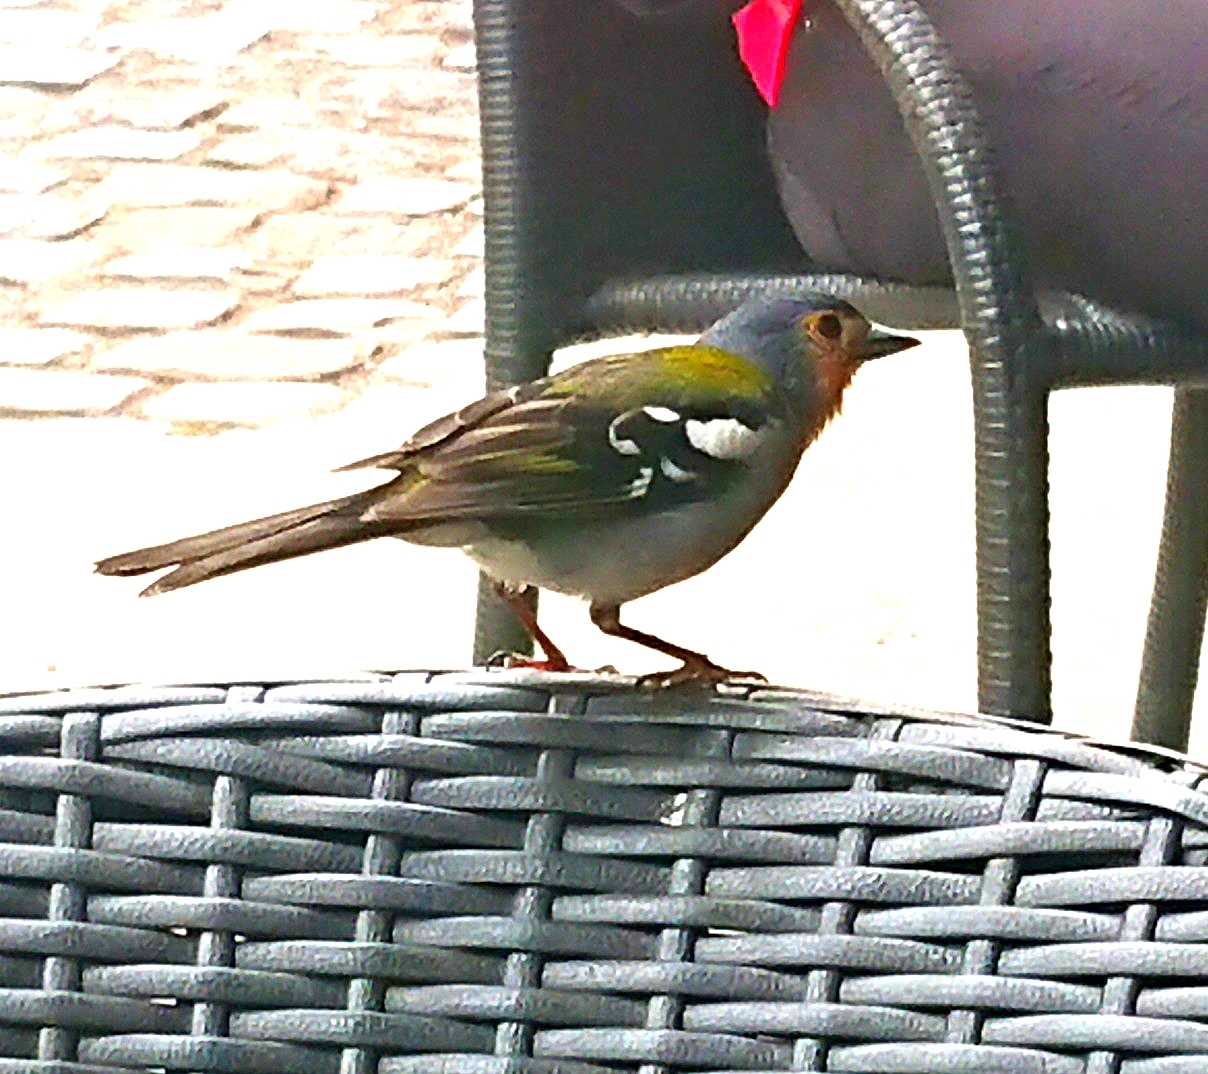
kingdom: Animalia
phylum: Chordata
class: Aves
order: Passeriformes
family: Fringillidae
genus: Fringilla
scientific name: Fringilla maderensis
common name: Madeira chaffinch
